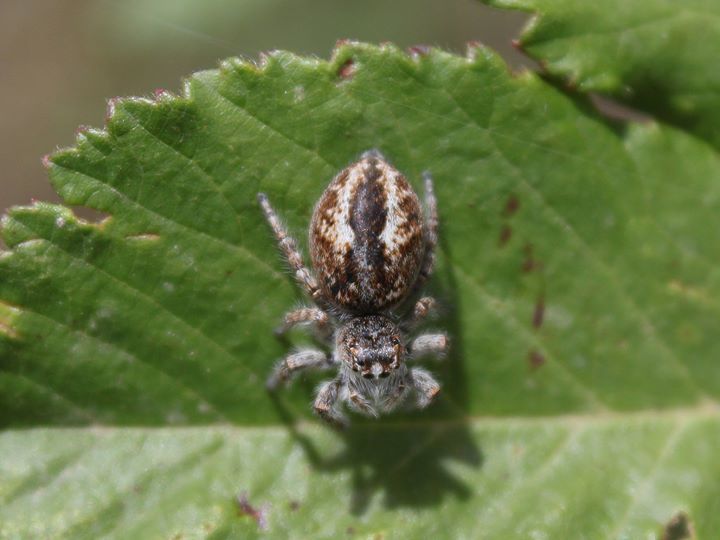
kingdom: Animalia
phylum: Arthropoda
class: Arachnida
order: Araneae
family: Salticidae
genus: Philaeus
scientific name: Philaeus chrysops
